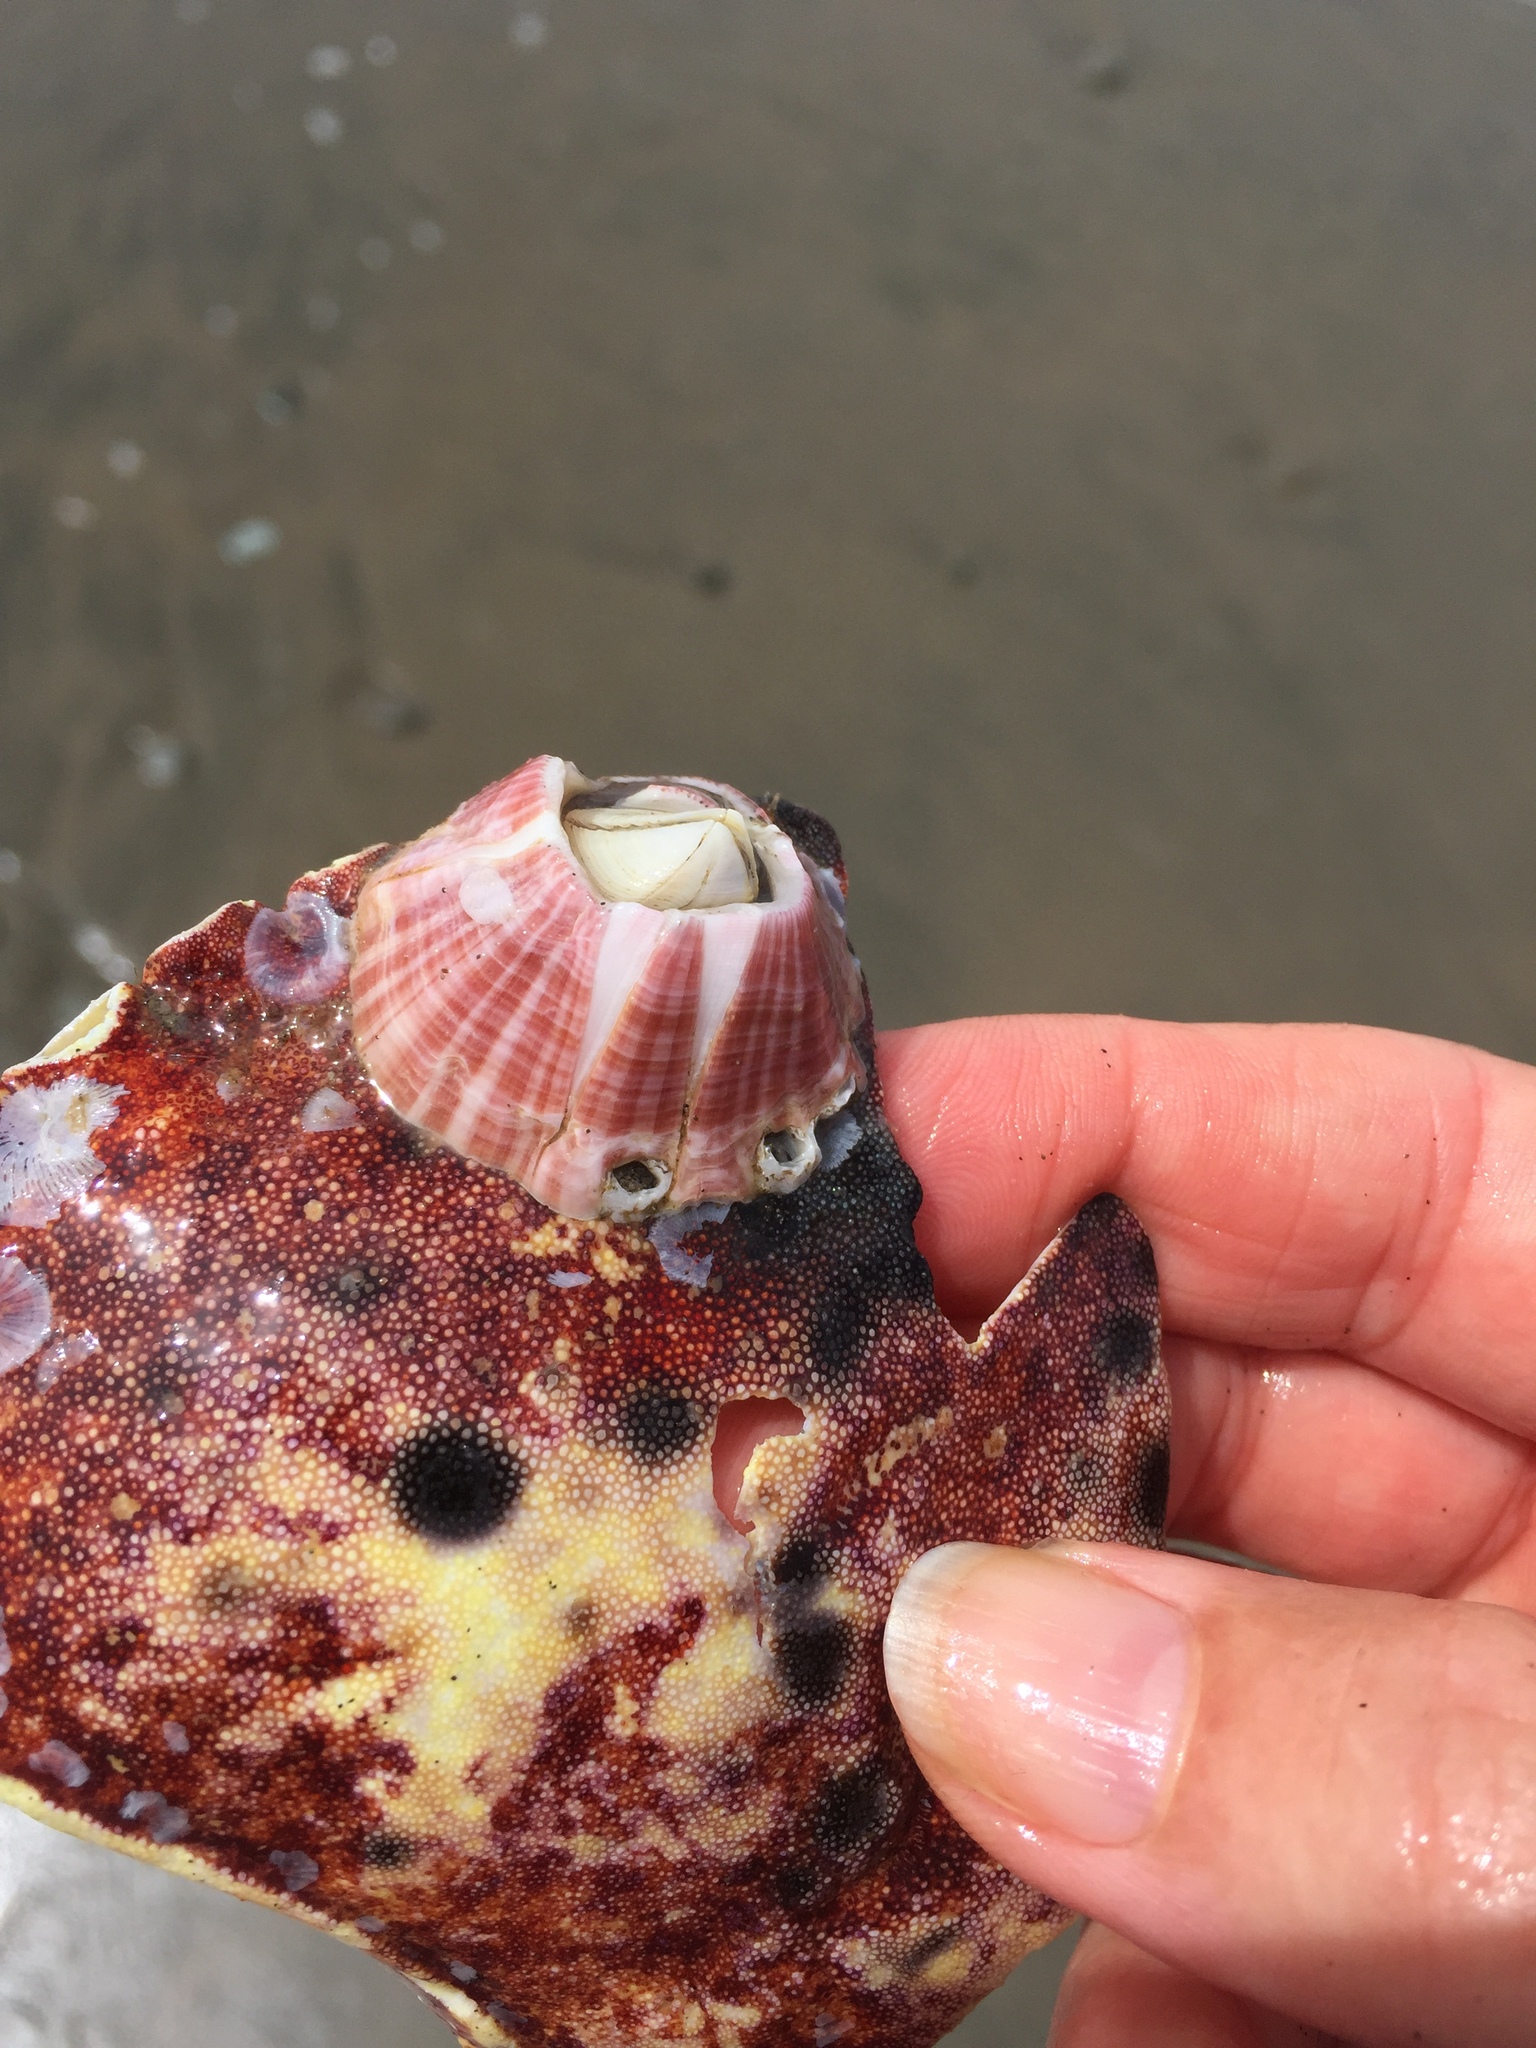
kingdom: Animalia
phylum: Arthropoda
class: Maxillopoda
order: Sessilia
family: Balanidae
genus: Paraconcavus
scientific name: Paraconcavus pacificus
